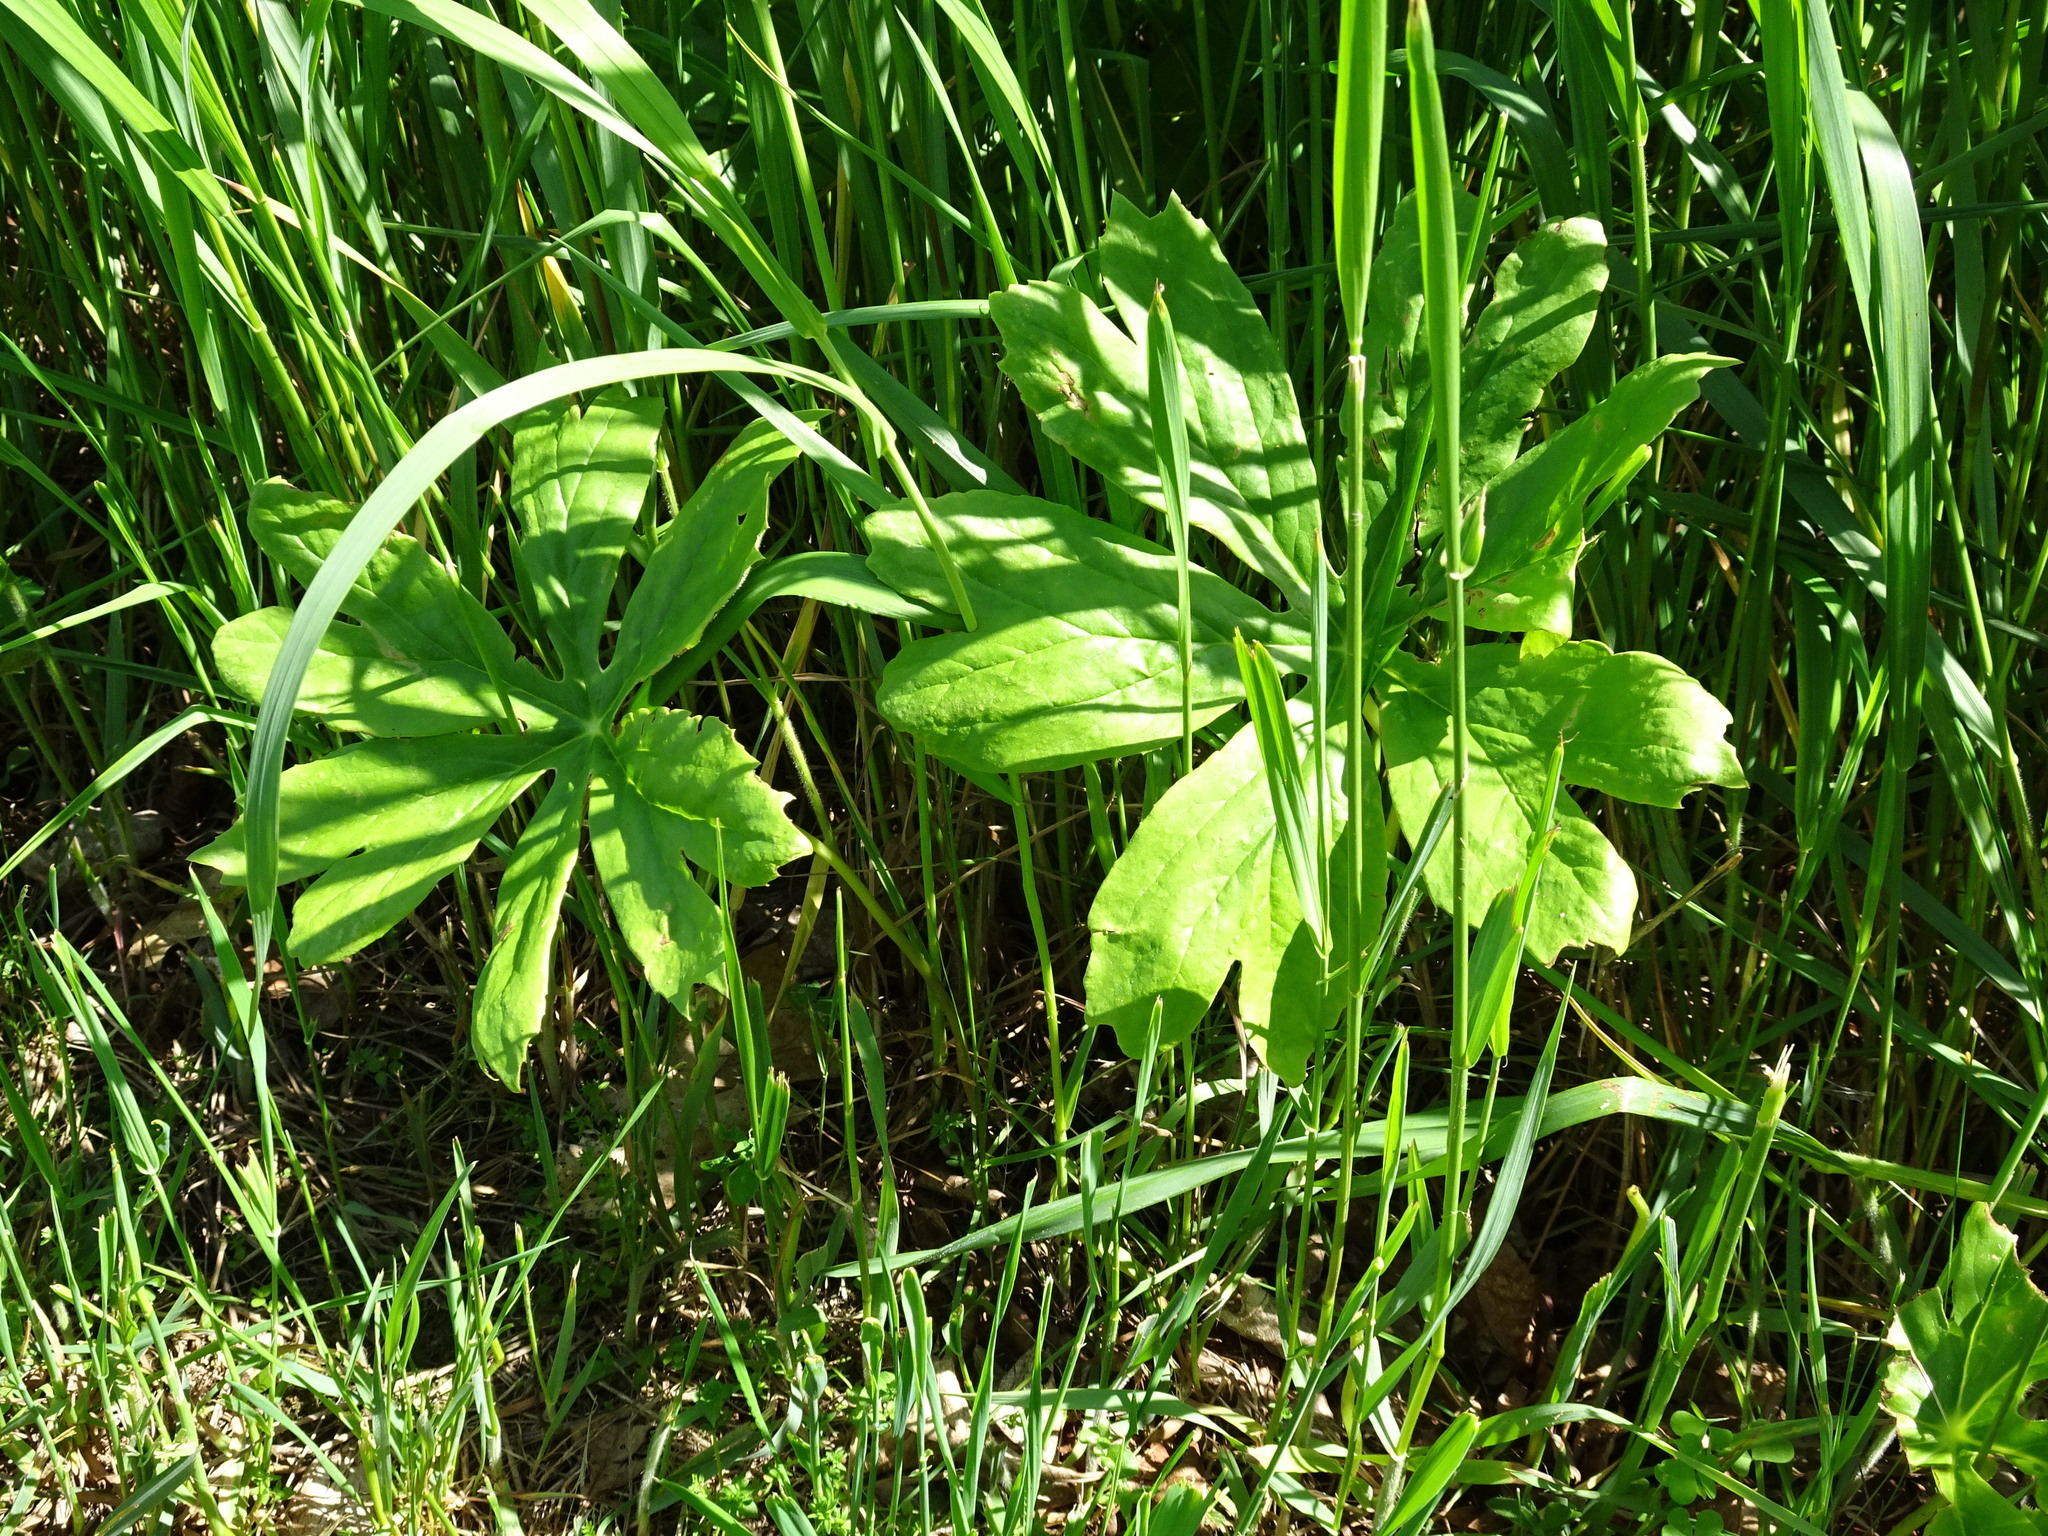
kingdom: Plantae
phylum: Tracheophyta
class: Magnoliopsida
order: Ranunculales
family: Berberidaceae
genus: Podophyllum
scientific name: Podophyllum peltatum
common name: Wild mandrake
